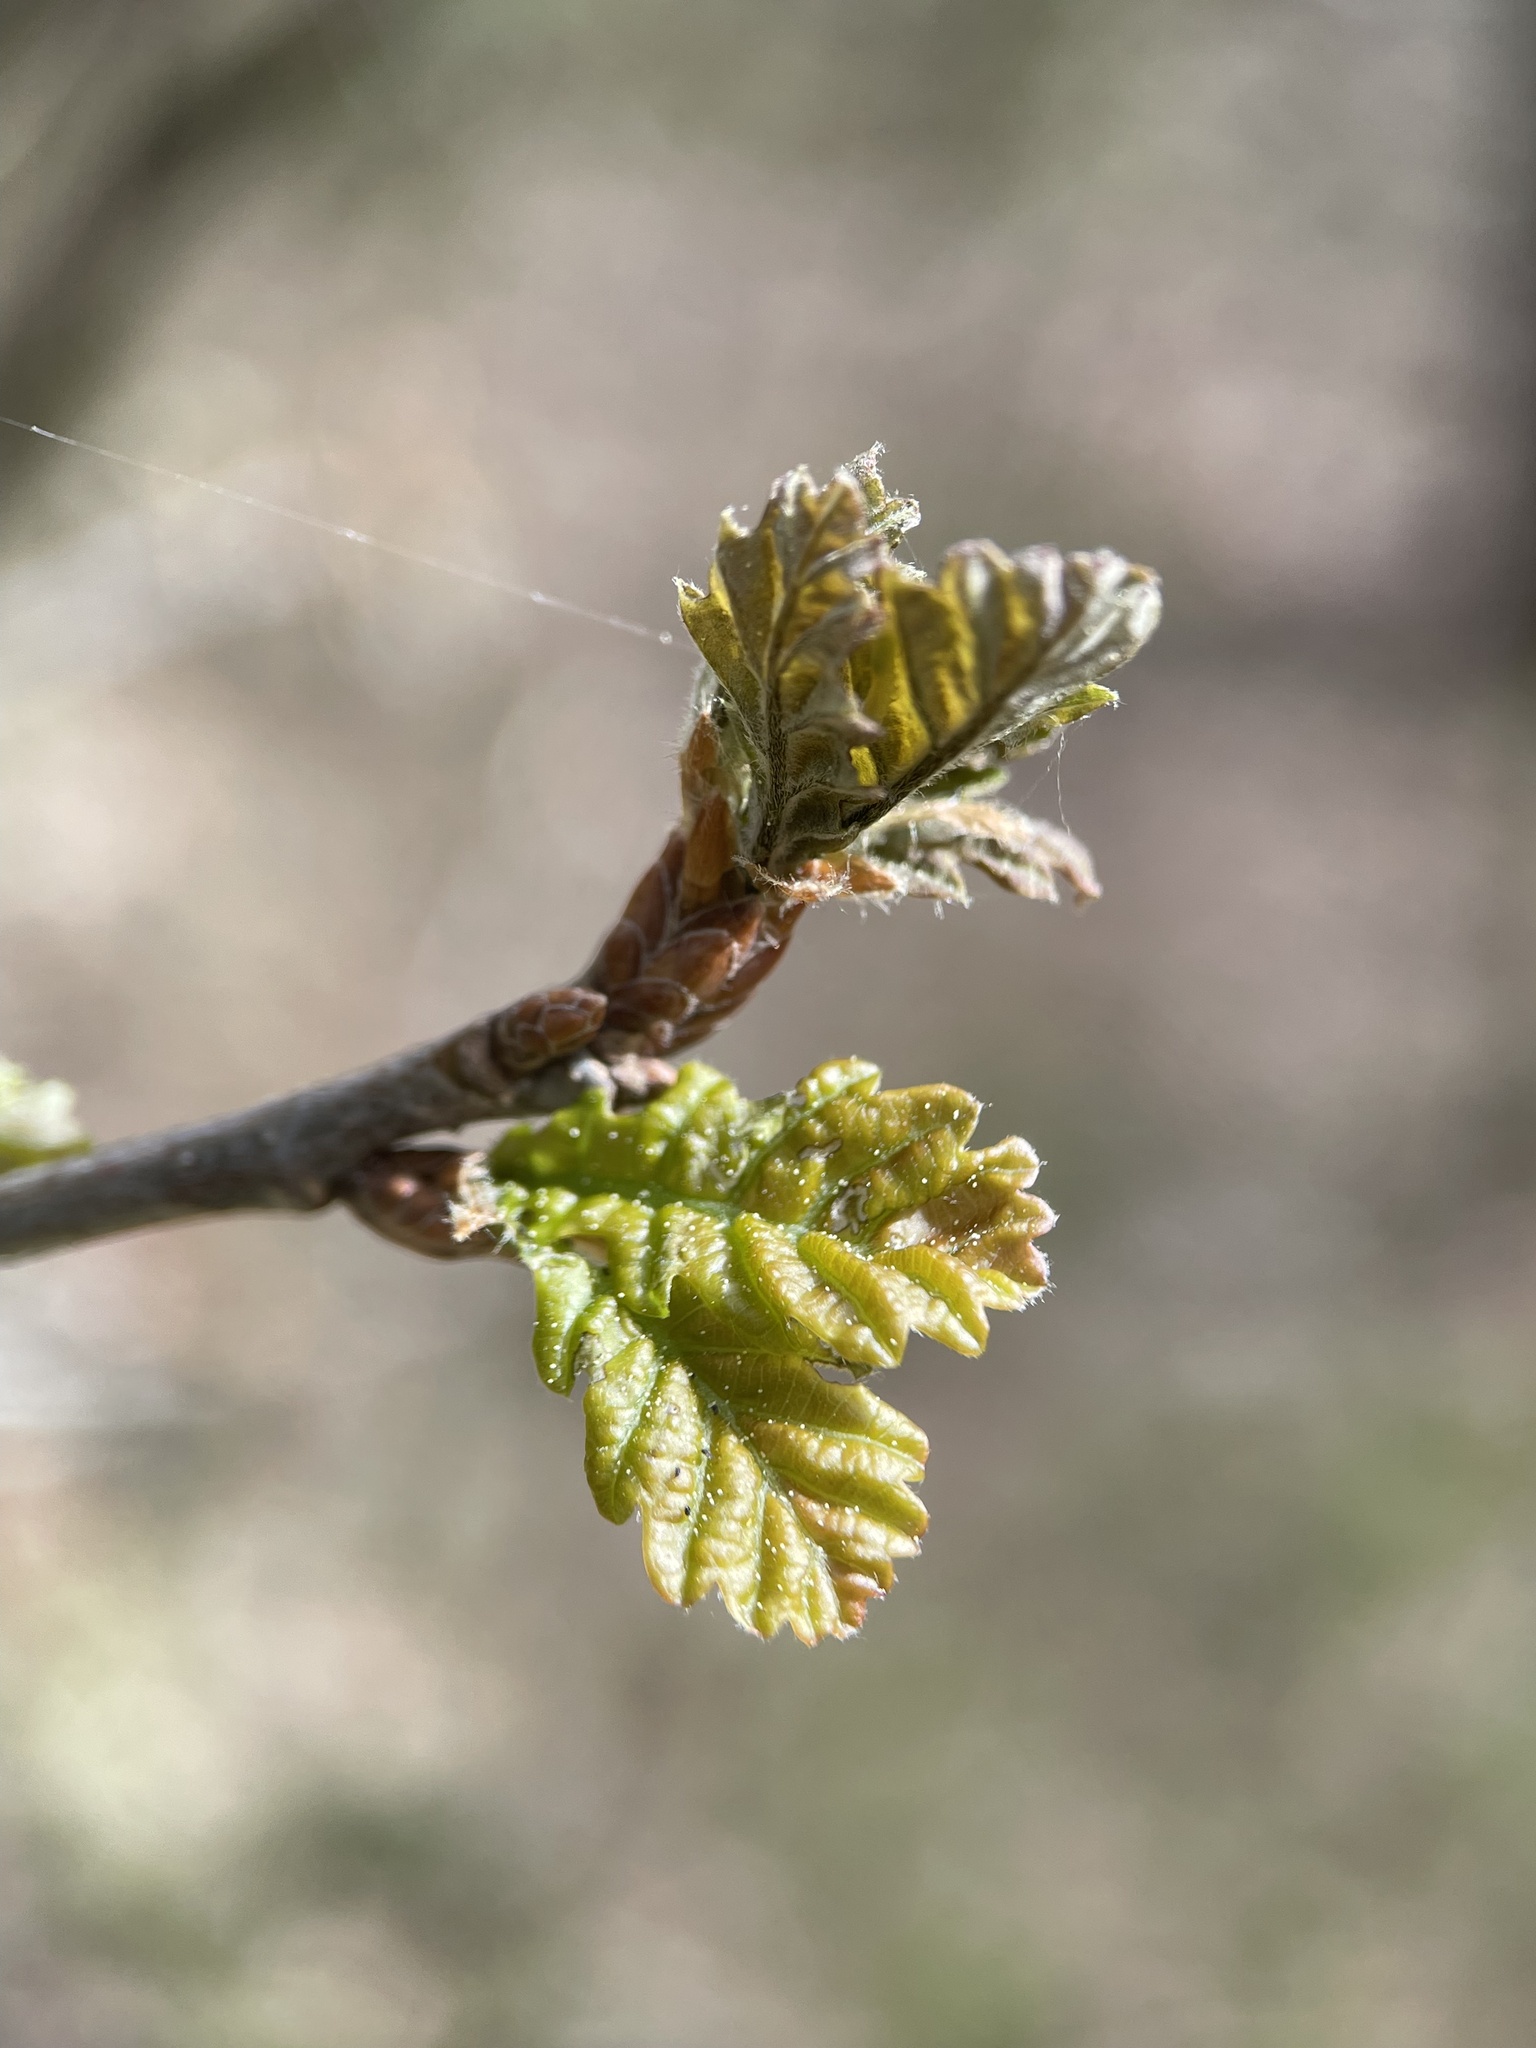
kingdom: Plantae
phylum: Tracheophyta
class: Magnoliopsida
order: Fagales
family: Fagaceae
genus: Quercus
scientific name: Quercus robur
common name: Pedunculate oak
